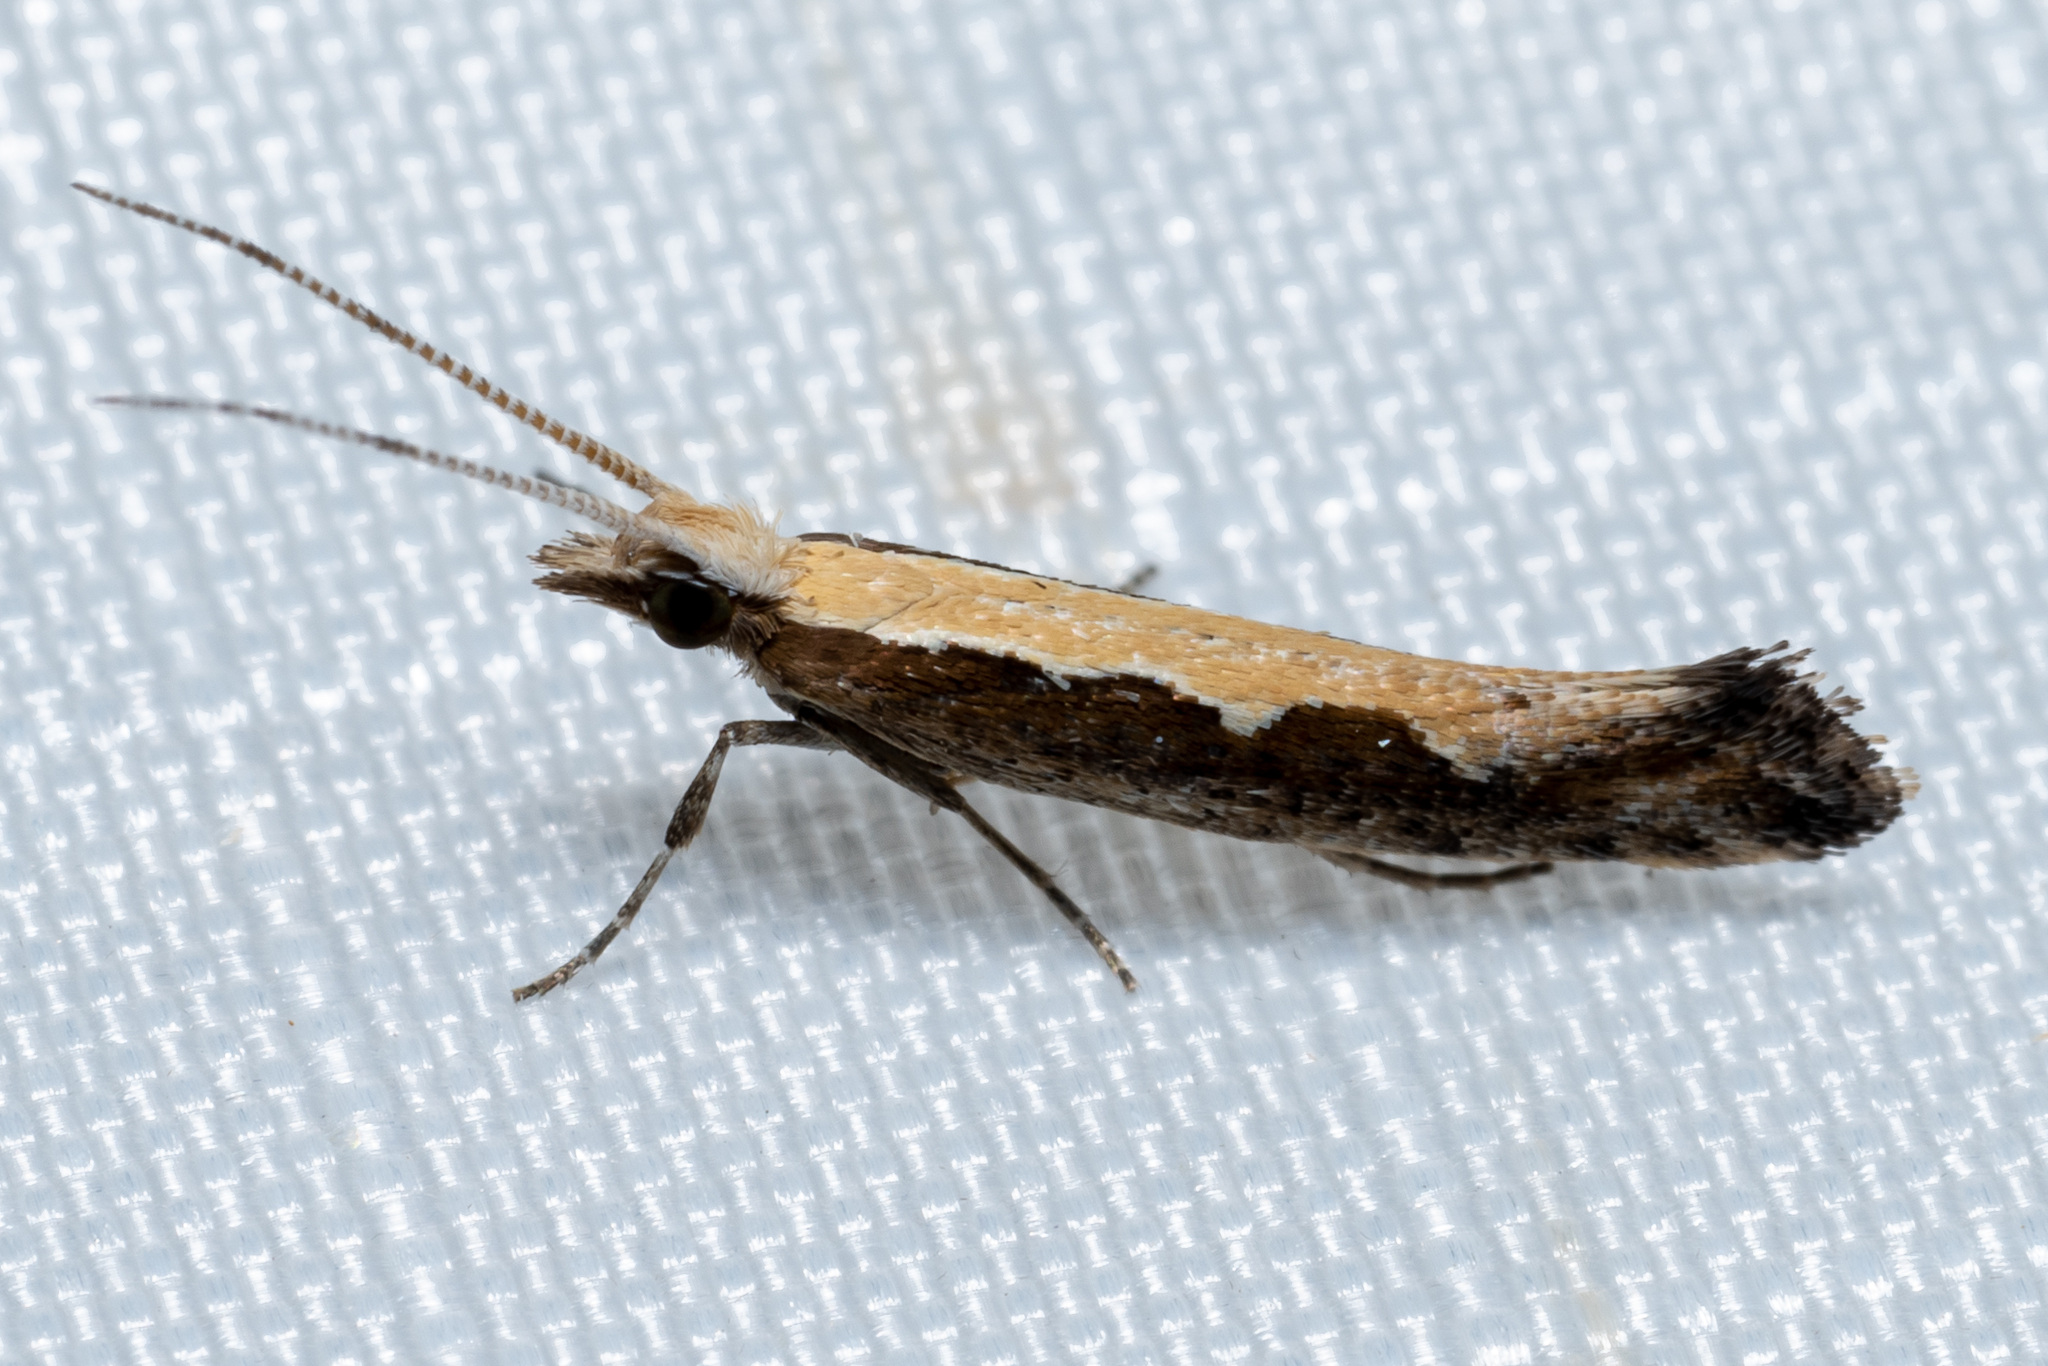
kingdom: Animalia
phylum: Arthropoda
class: Insecta
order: Lepidoptera
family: Plutellidae
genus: Plutella
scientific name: Plutella xylostella
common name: Diamond-back moth
